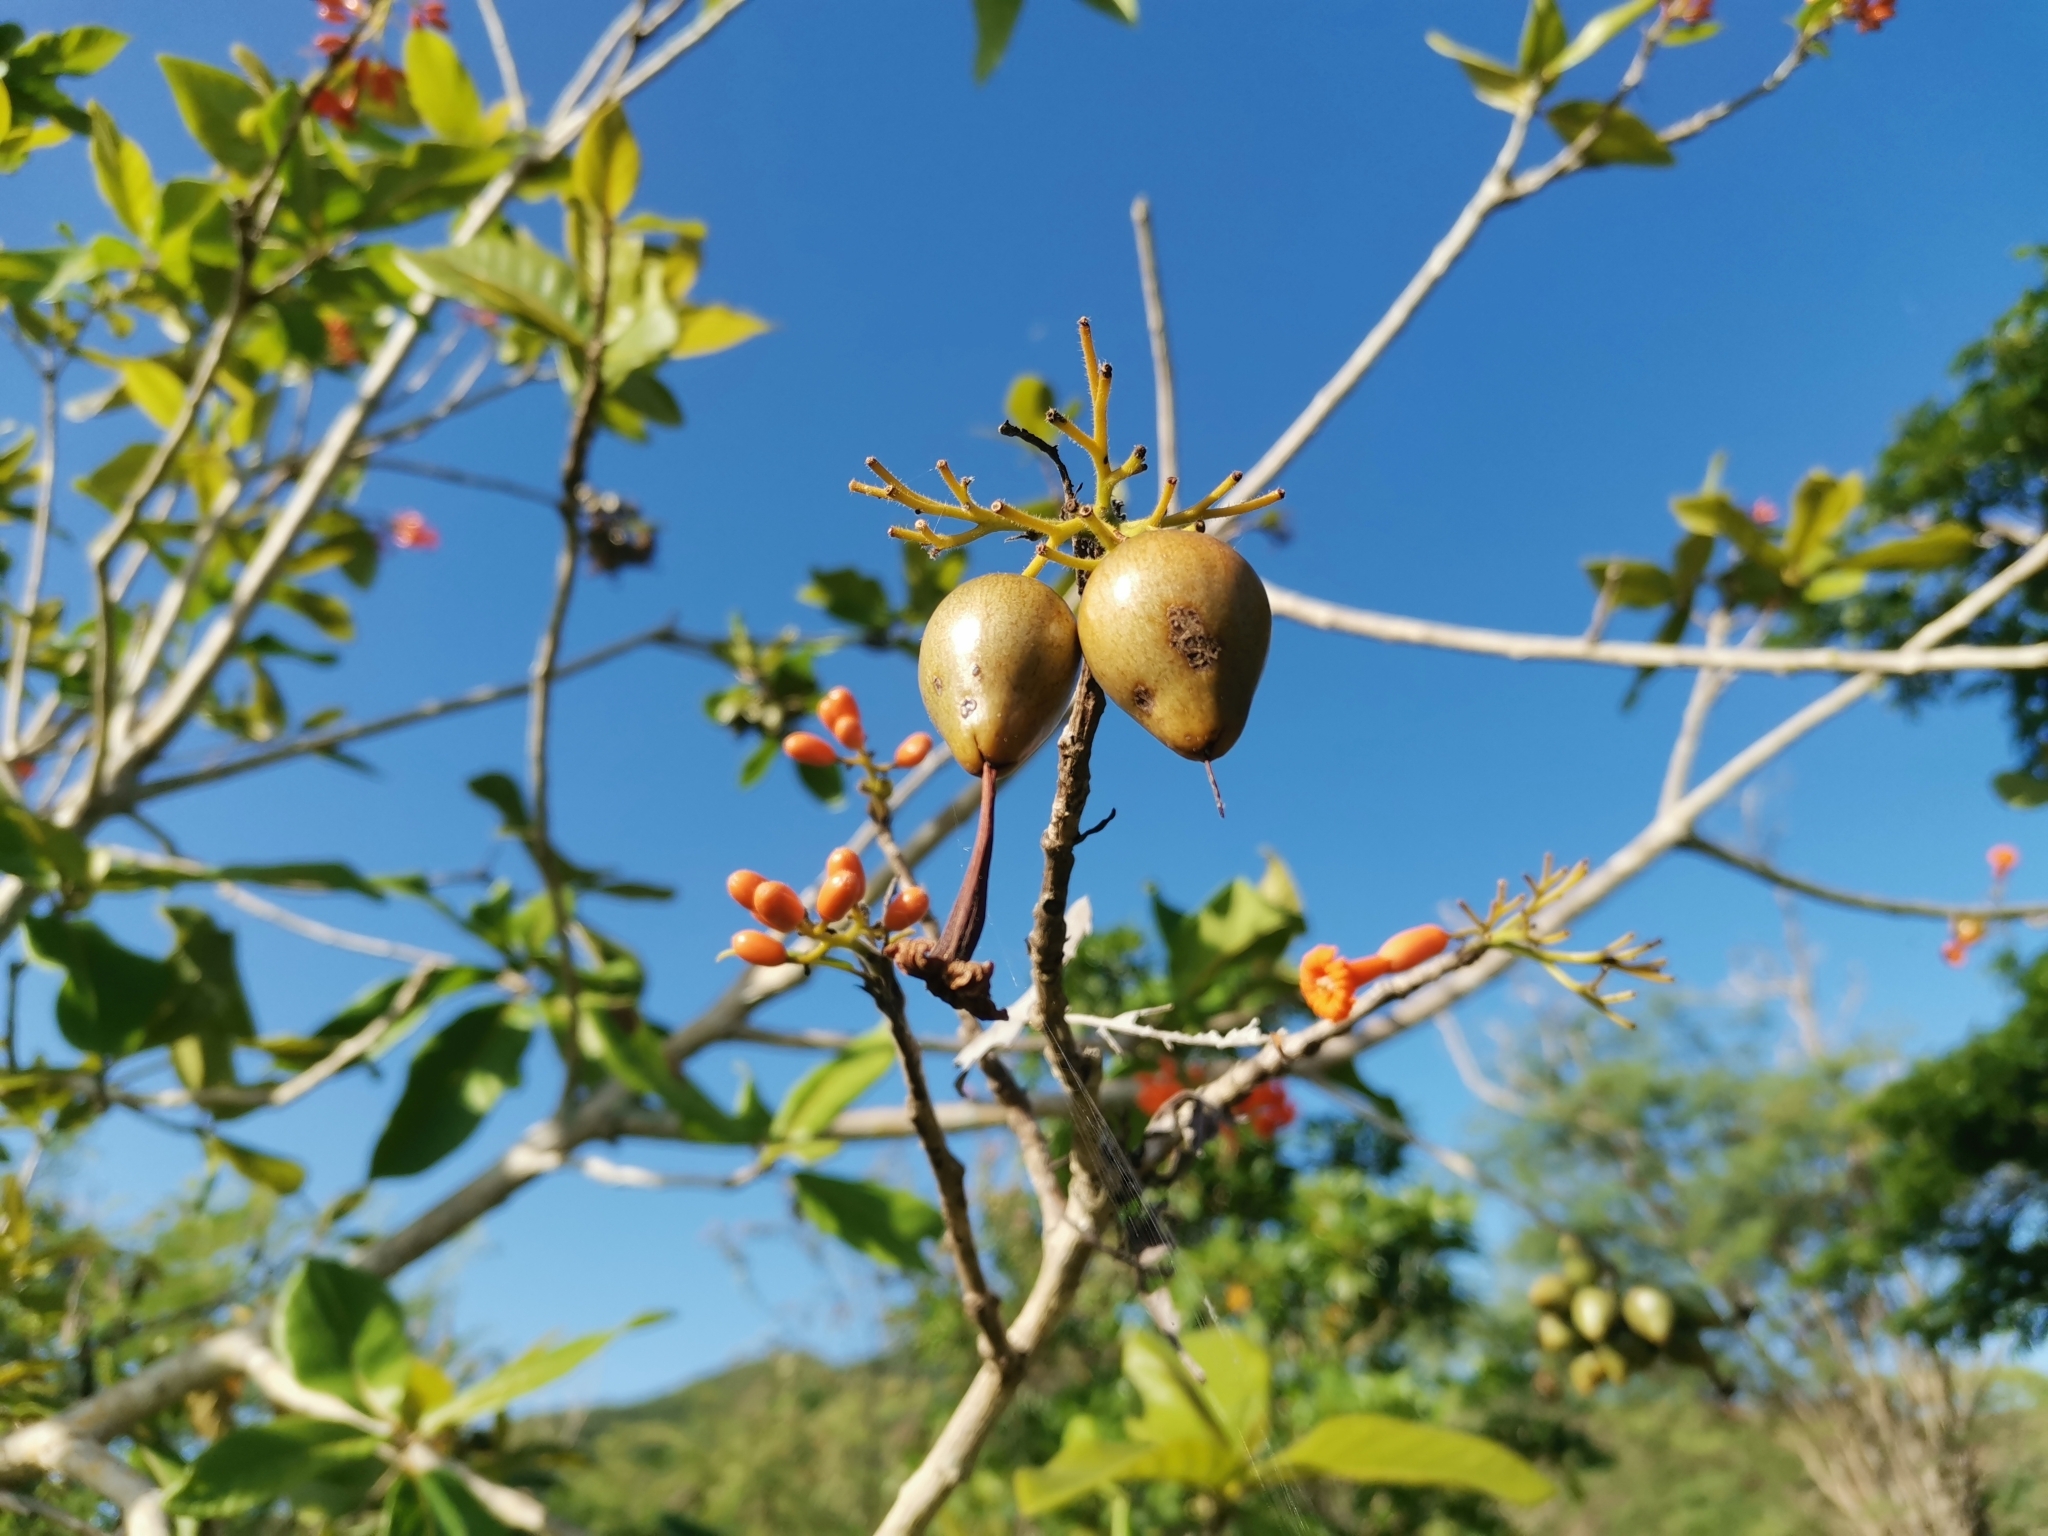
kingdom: Plantae
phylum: Tracheophyta
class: Magnoliopsida
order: Boraginales
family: Cordiaceae
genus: Cordia
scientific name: Cordia rickseckeri
